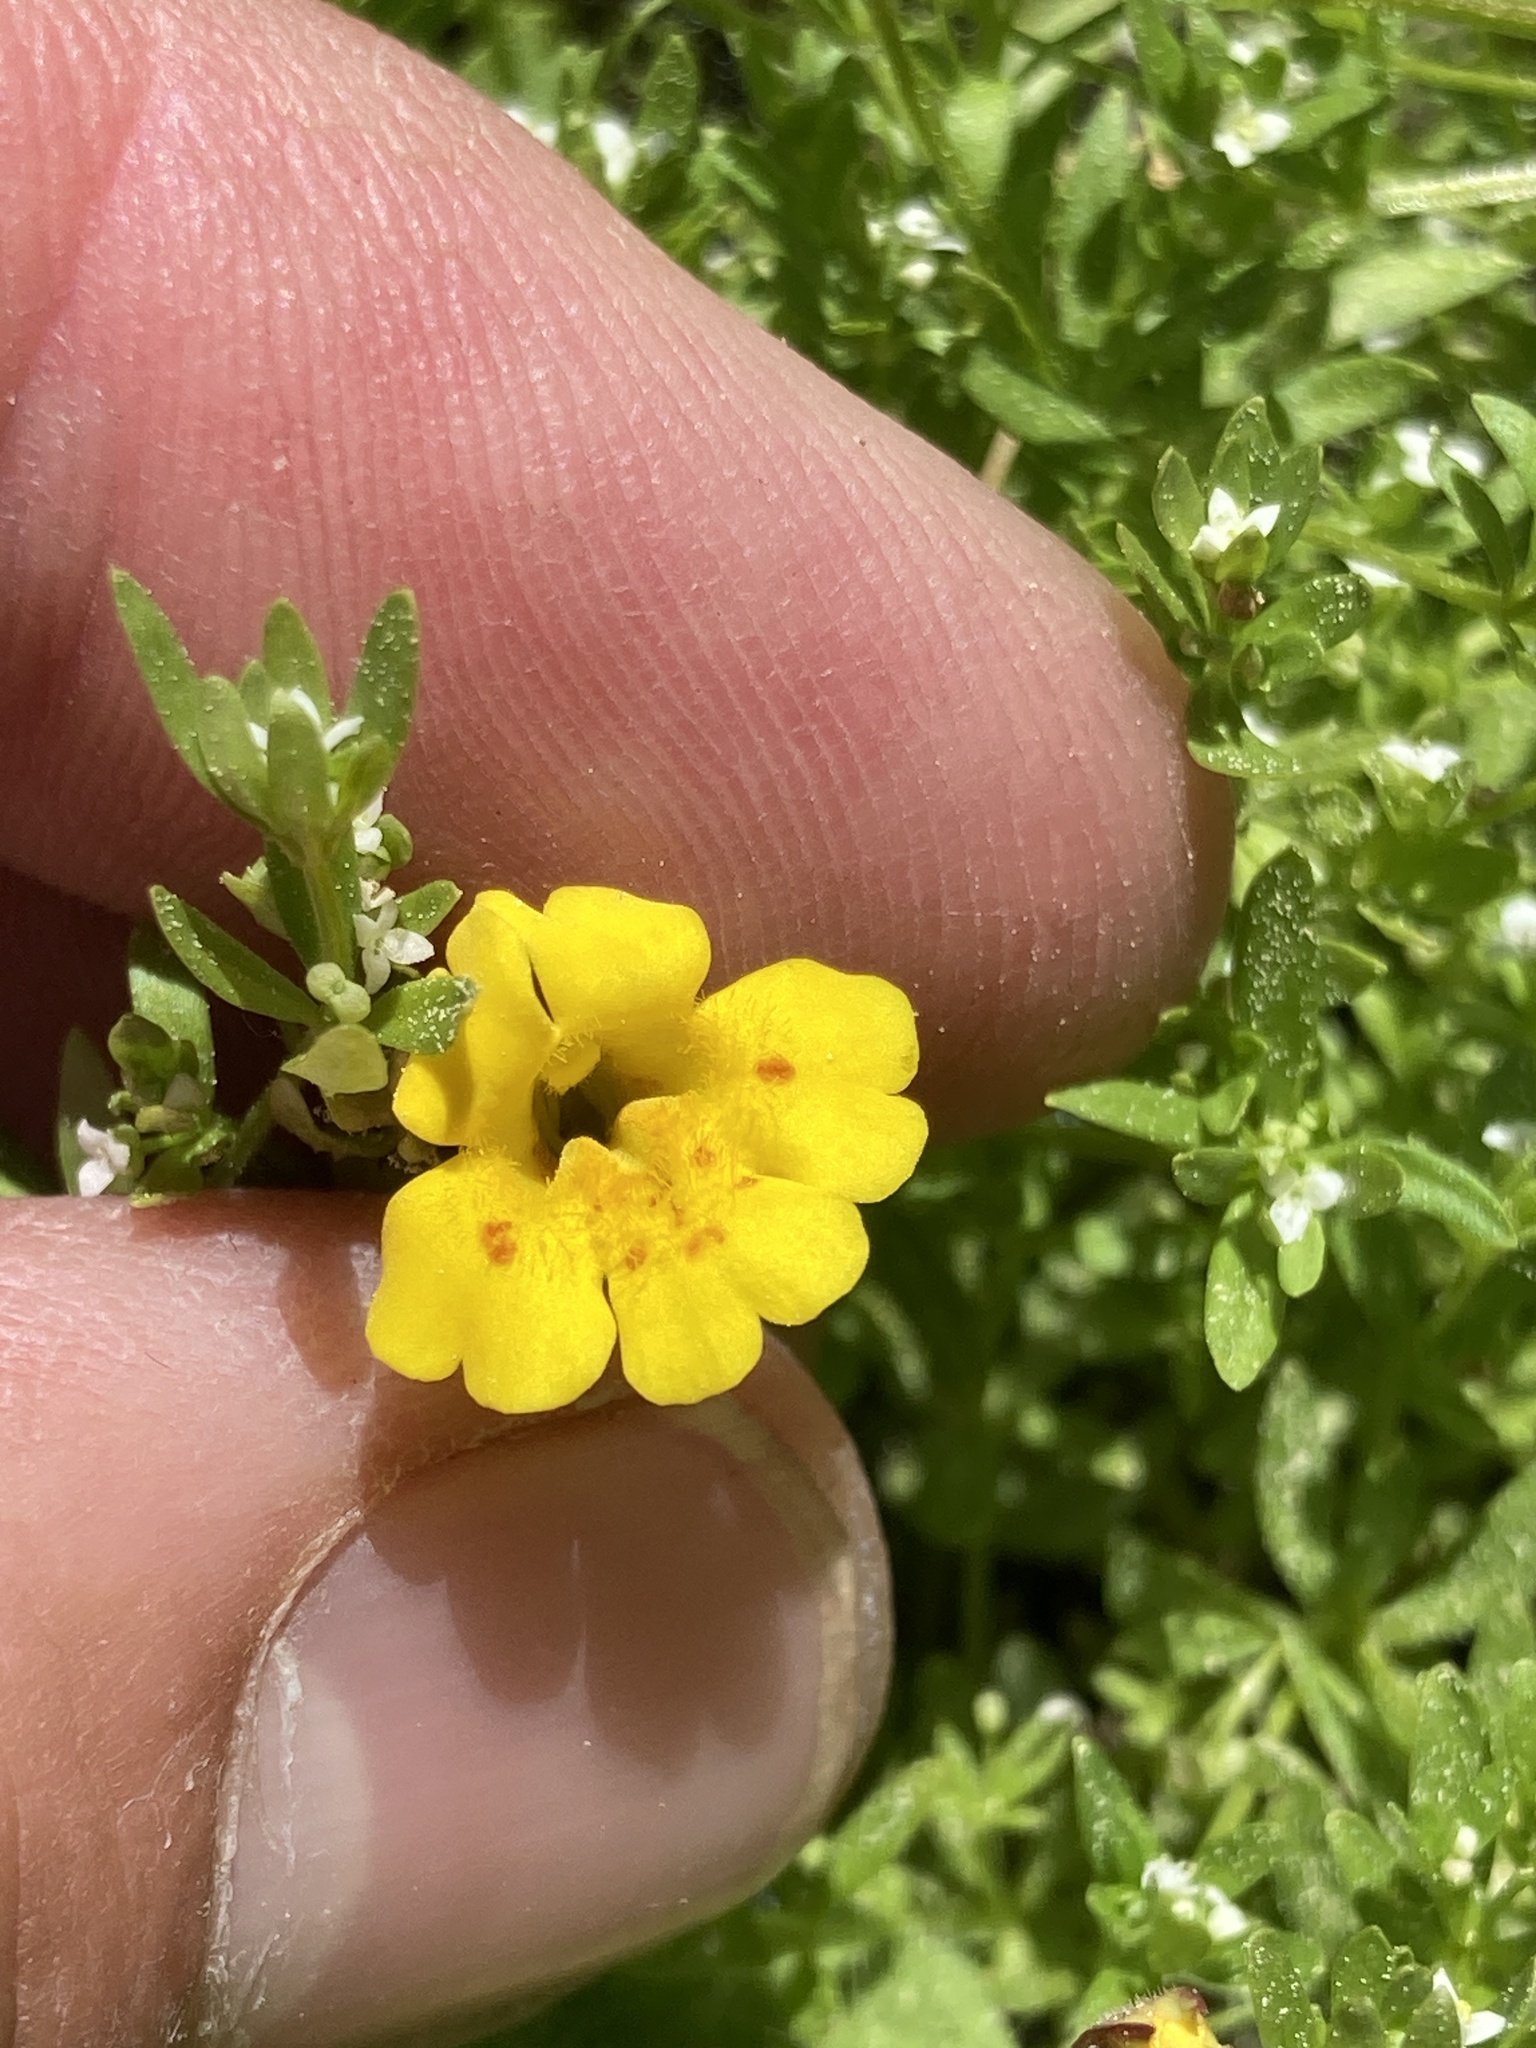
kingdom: Plantae
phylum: Tracheophyta
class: Magnoliopsida
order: Lamiales
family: Phrymaceae
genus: Erythranthe
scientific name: Erythranthe primuloides
